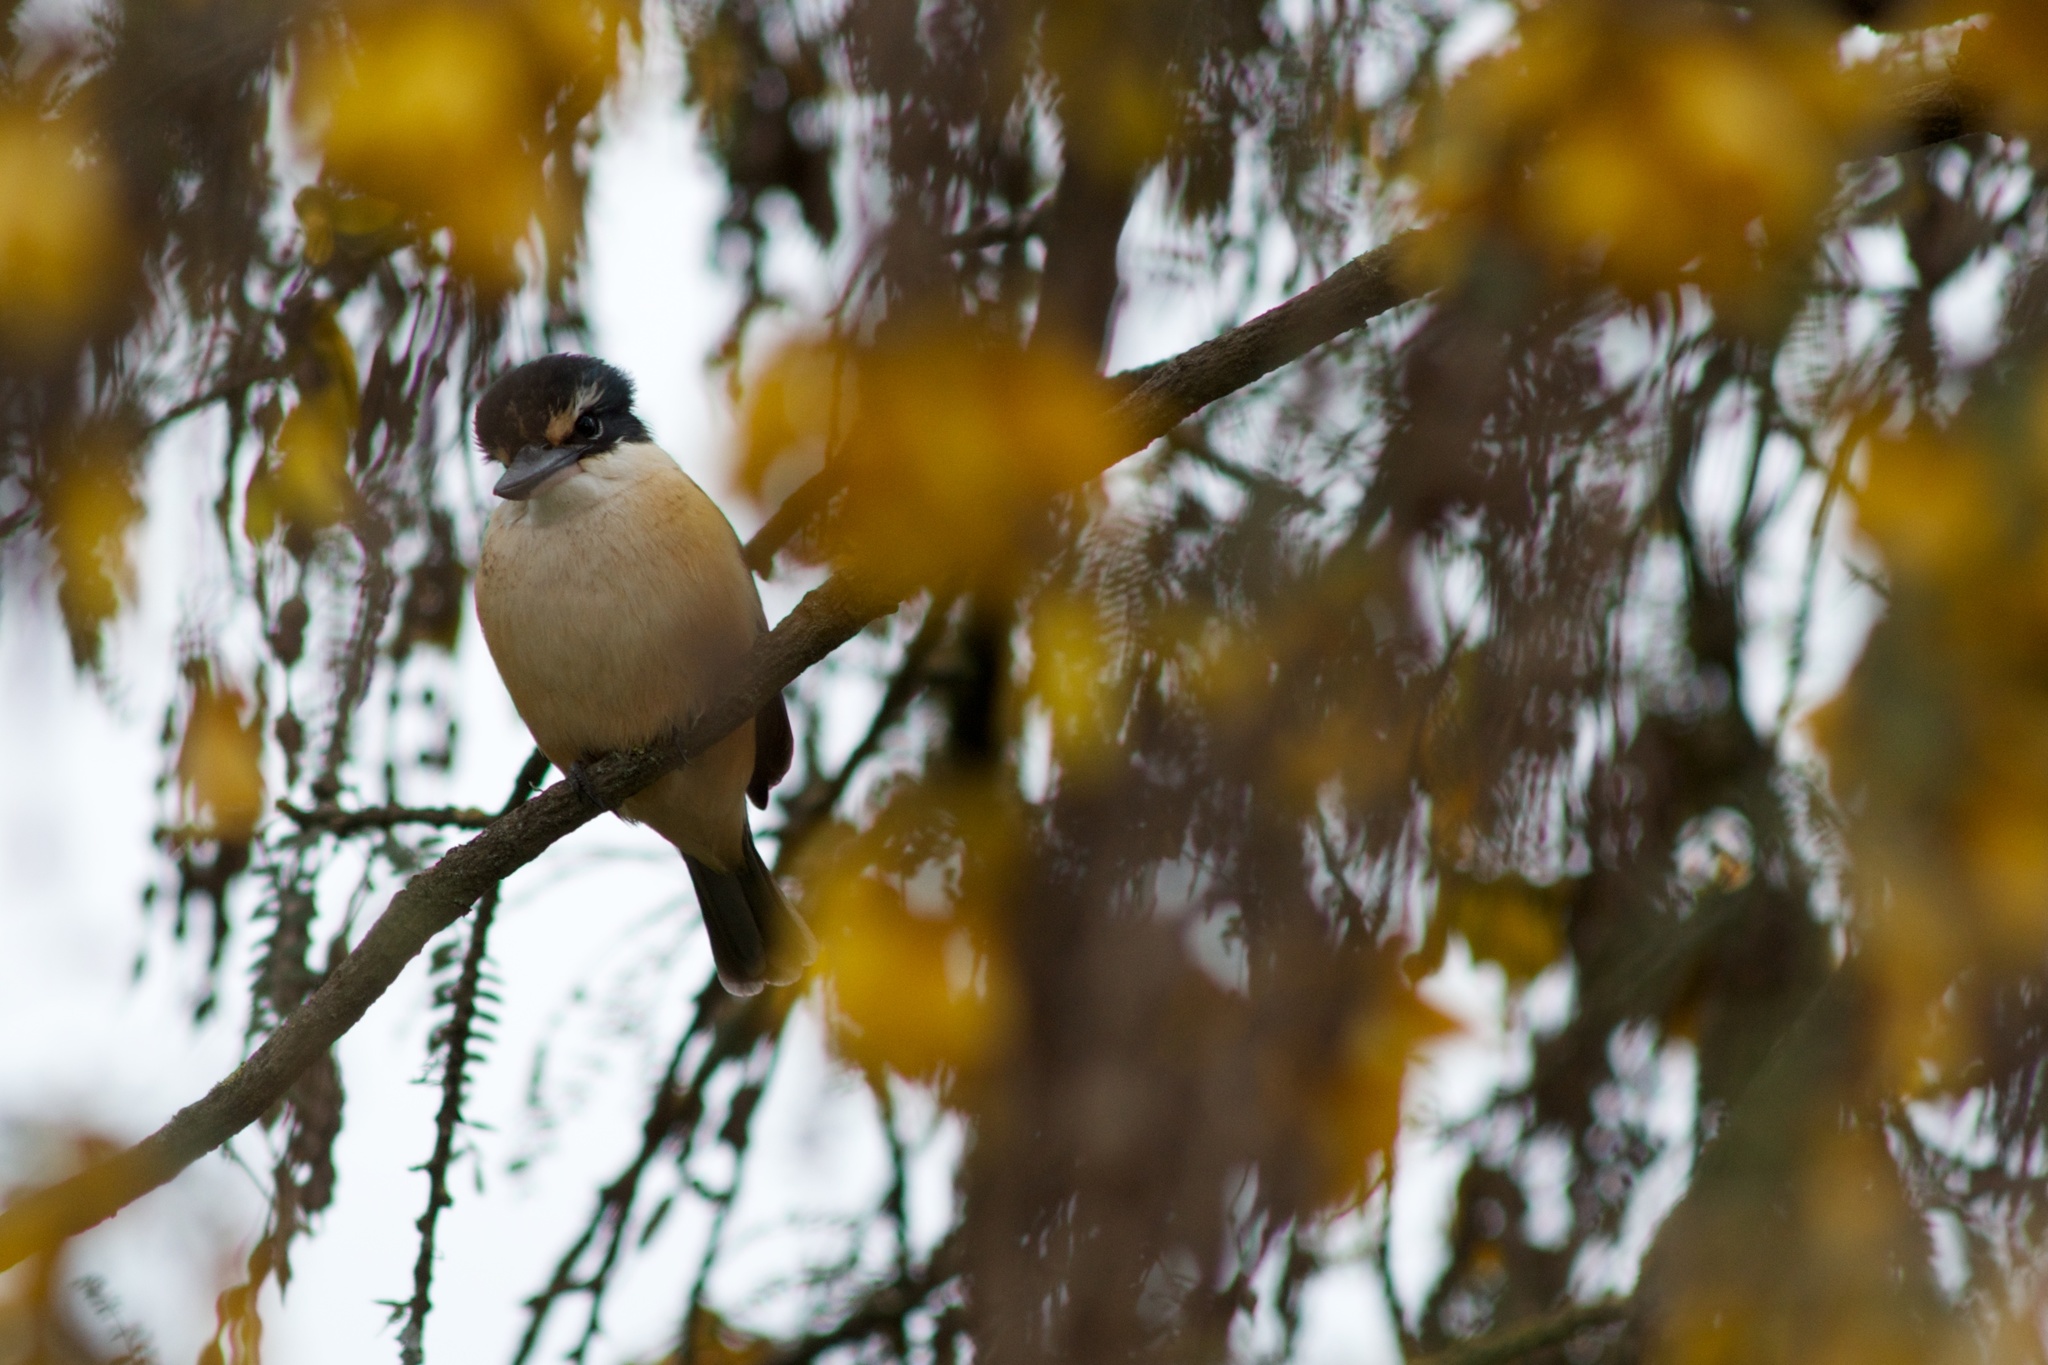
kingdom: Animalia
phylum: Chordata
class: Aves
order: Coraciiformes
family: Alcedinidae
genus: Todiramphus
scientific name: Todiramphus sanctus
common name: Sacred kingfisher
